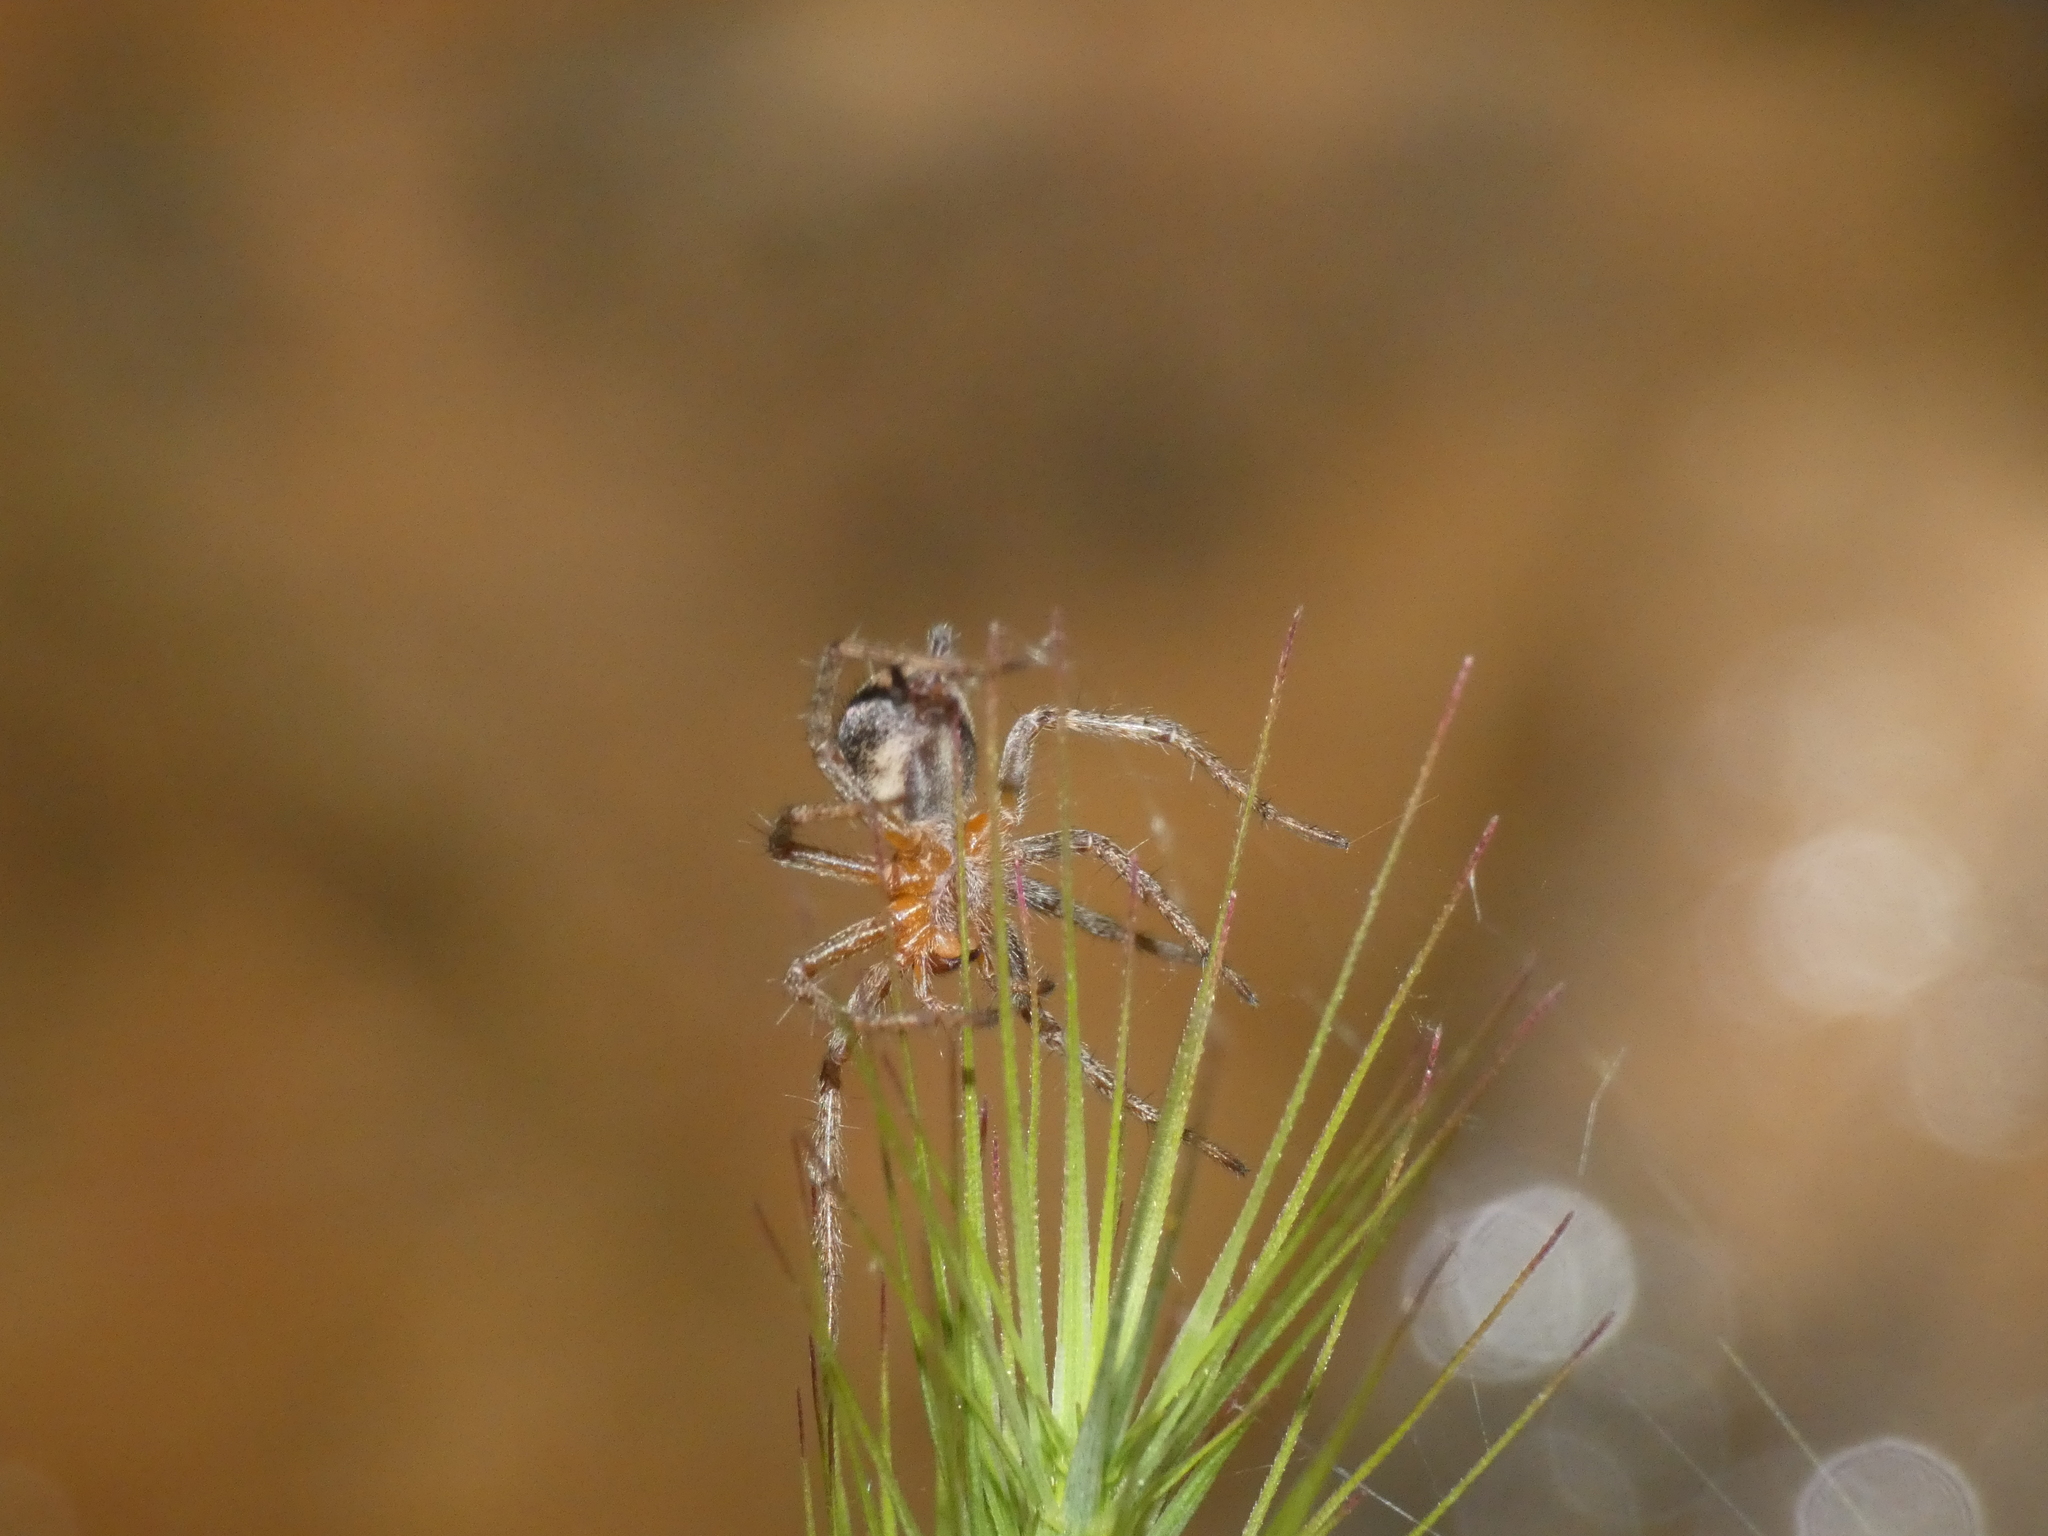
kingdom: Animalia
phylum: Arthropoda
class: Arachnida
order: Araneae
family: Agelenidae
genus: Agelena
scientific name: Agelena labyrinthica
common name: Labyrinth spider
